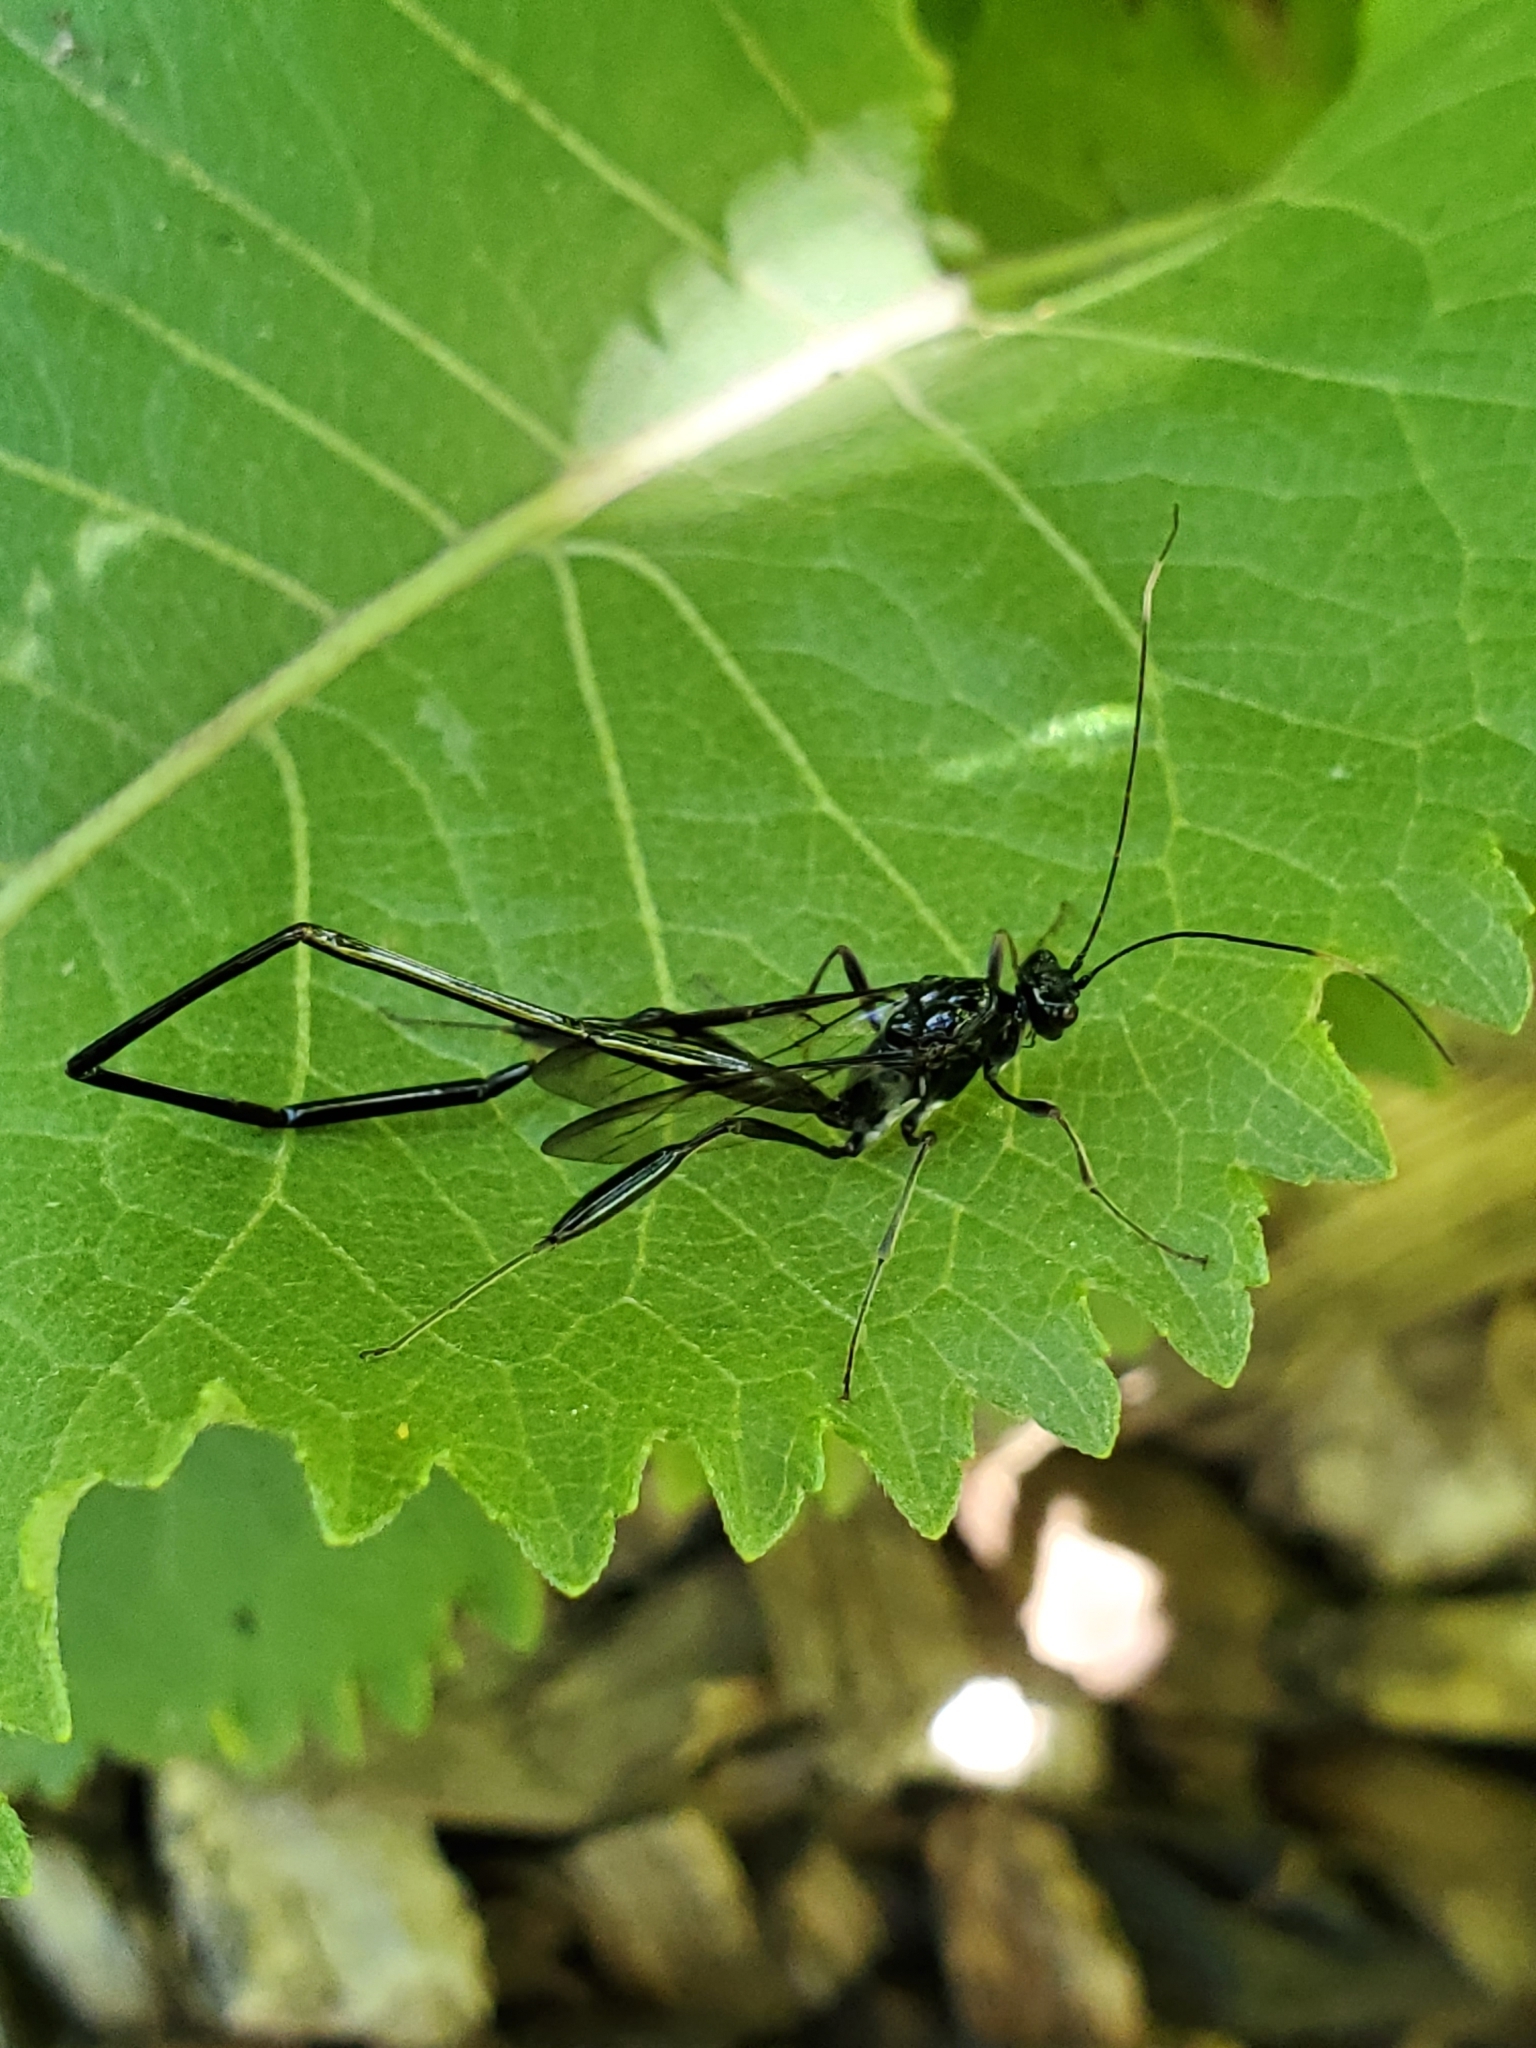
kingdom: Animalia
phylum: Arthropoda
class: Insecta
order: Hymenoptera
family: Pelecinidae
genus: Pelecinus
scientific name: Pelecinus polyturator
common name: American pelecinid wasp
